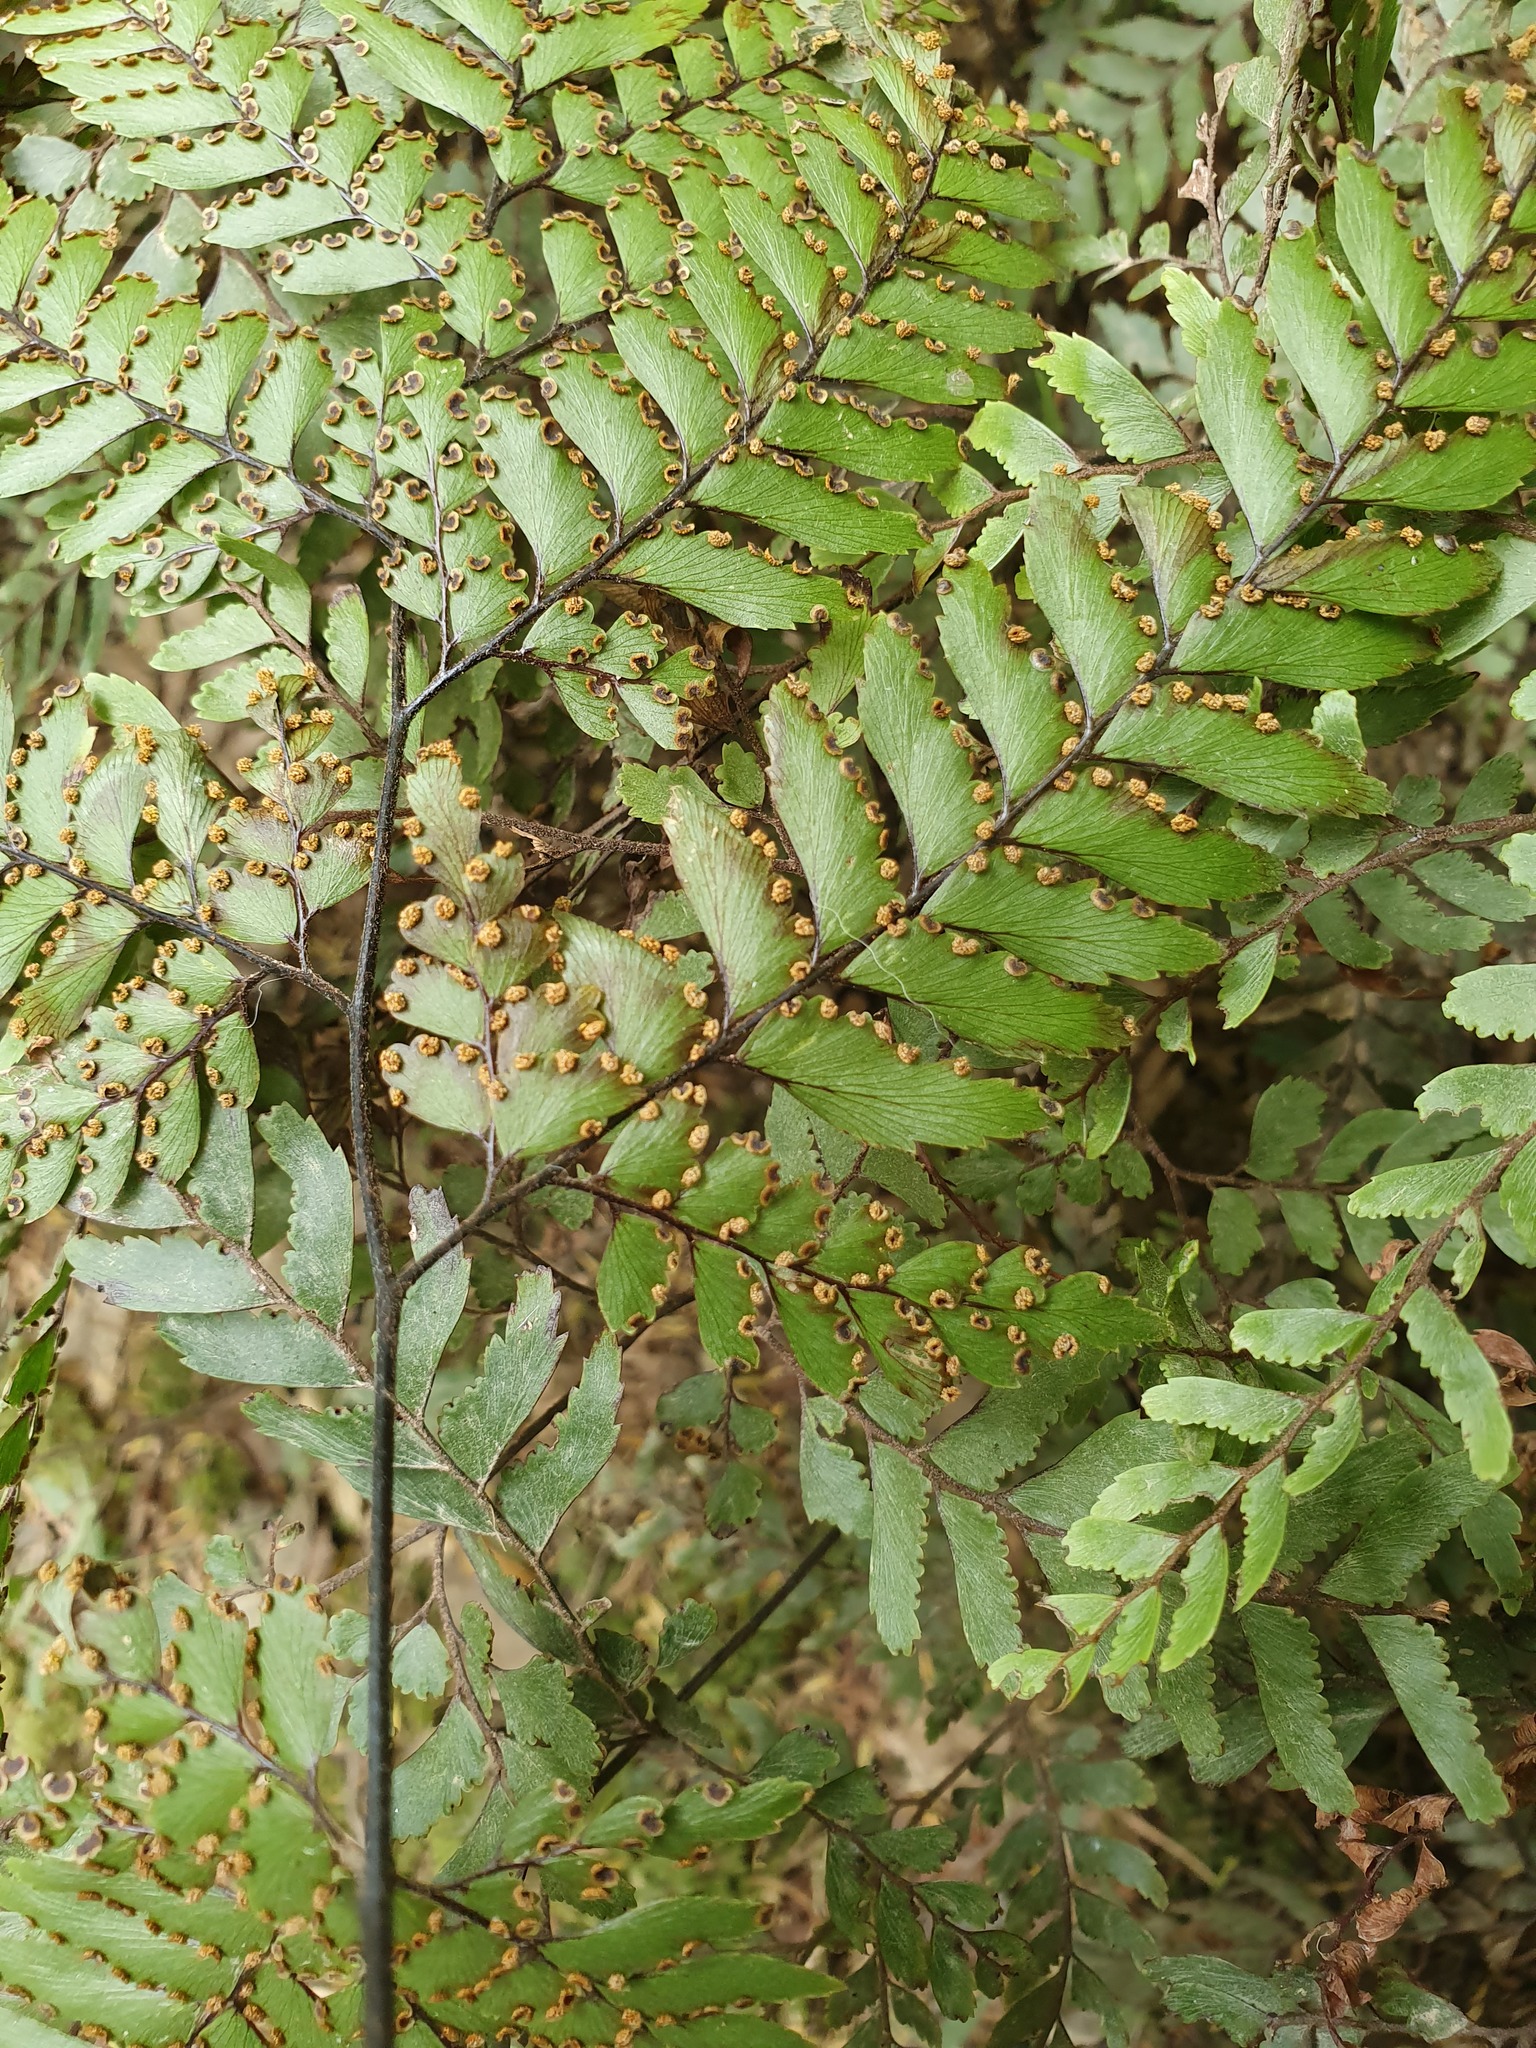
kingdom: Plantae
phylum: Tracheophyta
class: Polypodiopsida
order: Polypodiales
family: Pteridaceae
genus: Adiantum
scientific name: Adiantum fulvum
